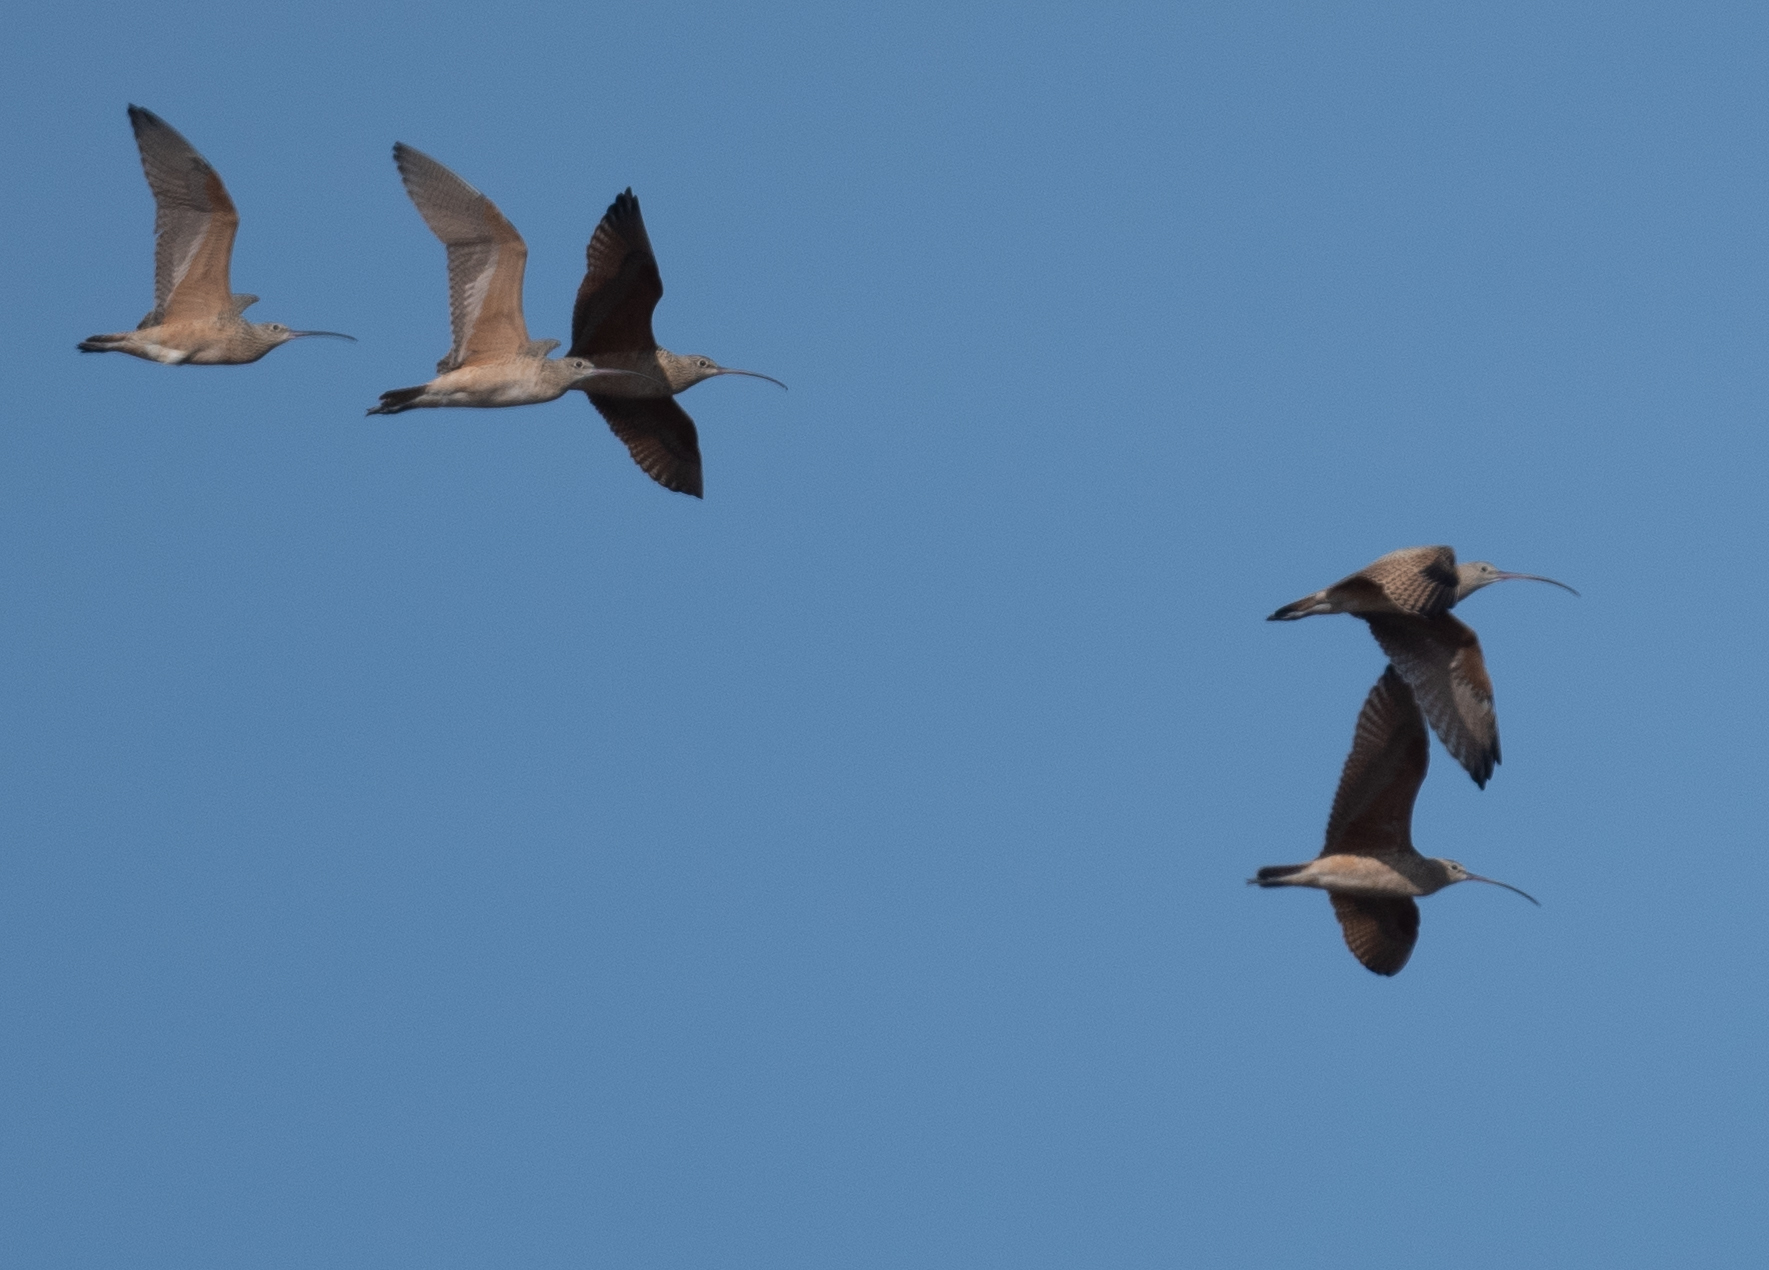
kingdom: Animalia
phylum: Chordata
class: Aves
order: Charadriiformes
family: Scolopacidae
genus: Numenius
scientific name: Numenius americanus
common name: Long-billed curlew
